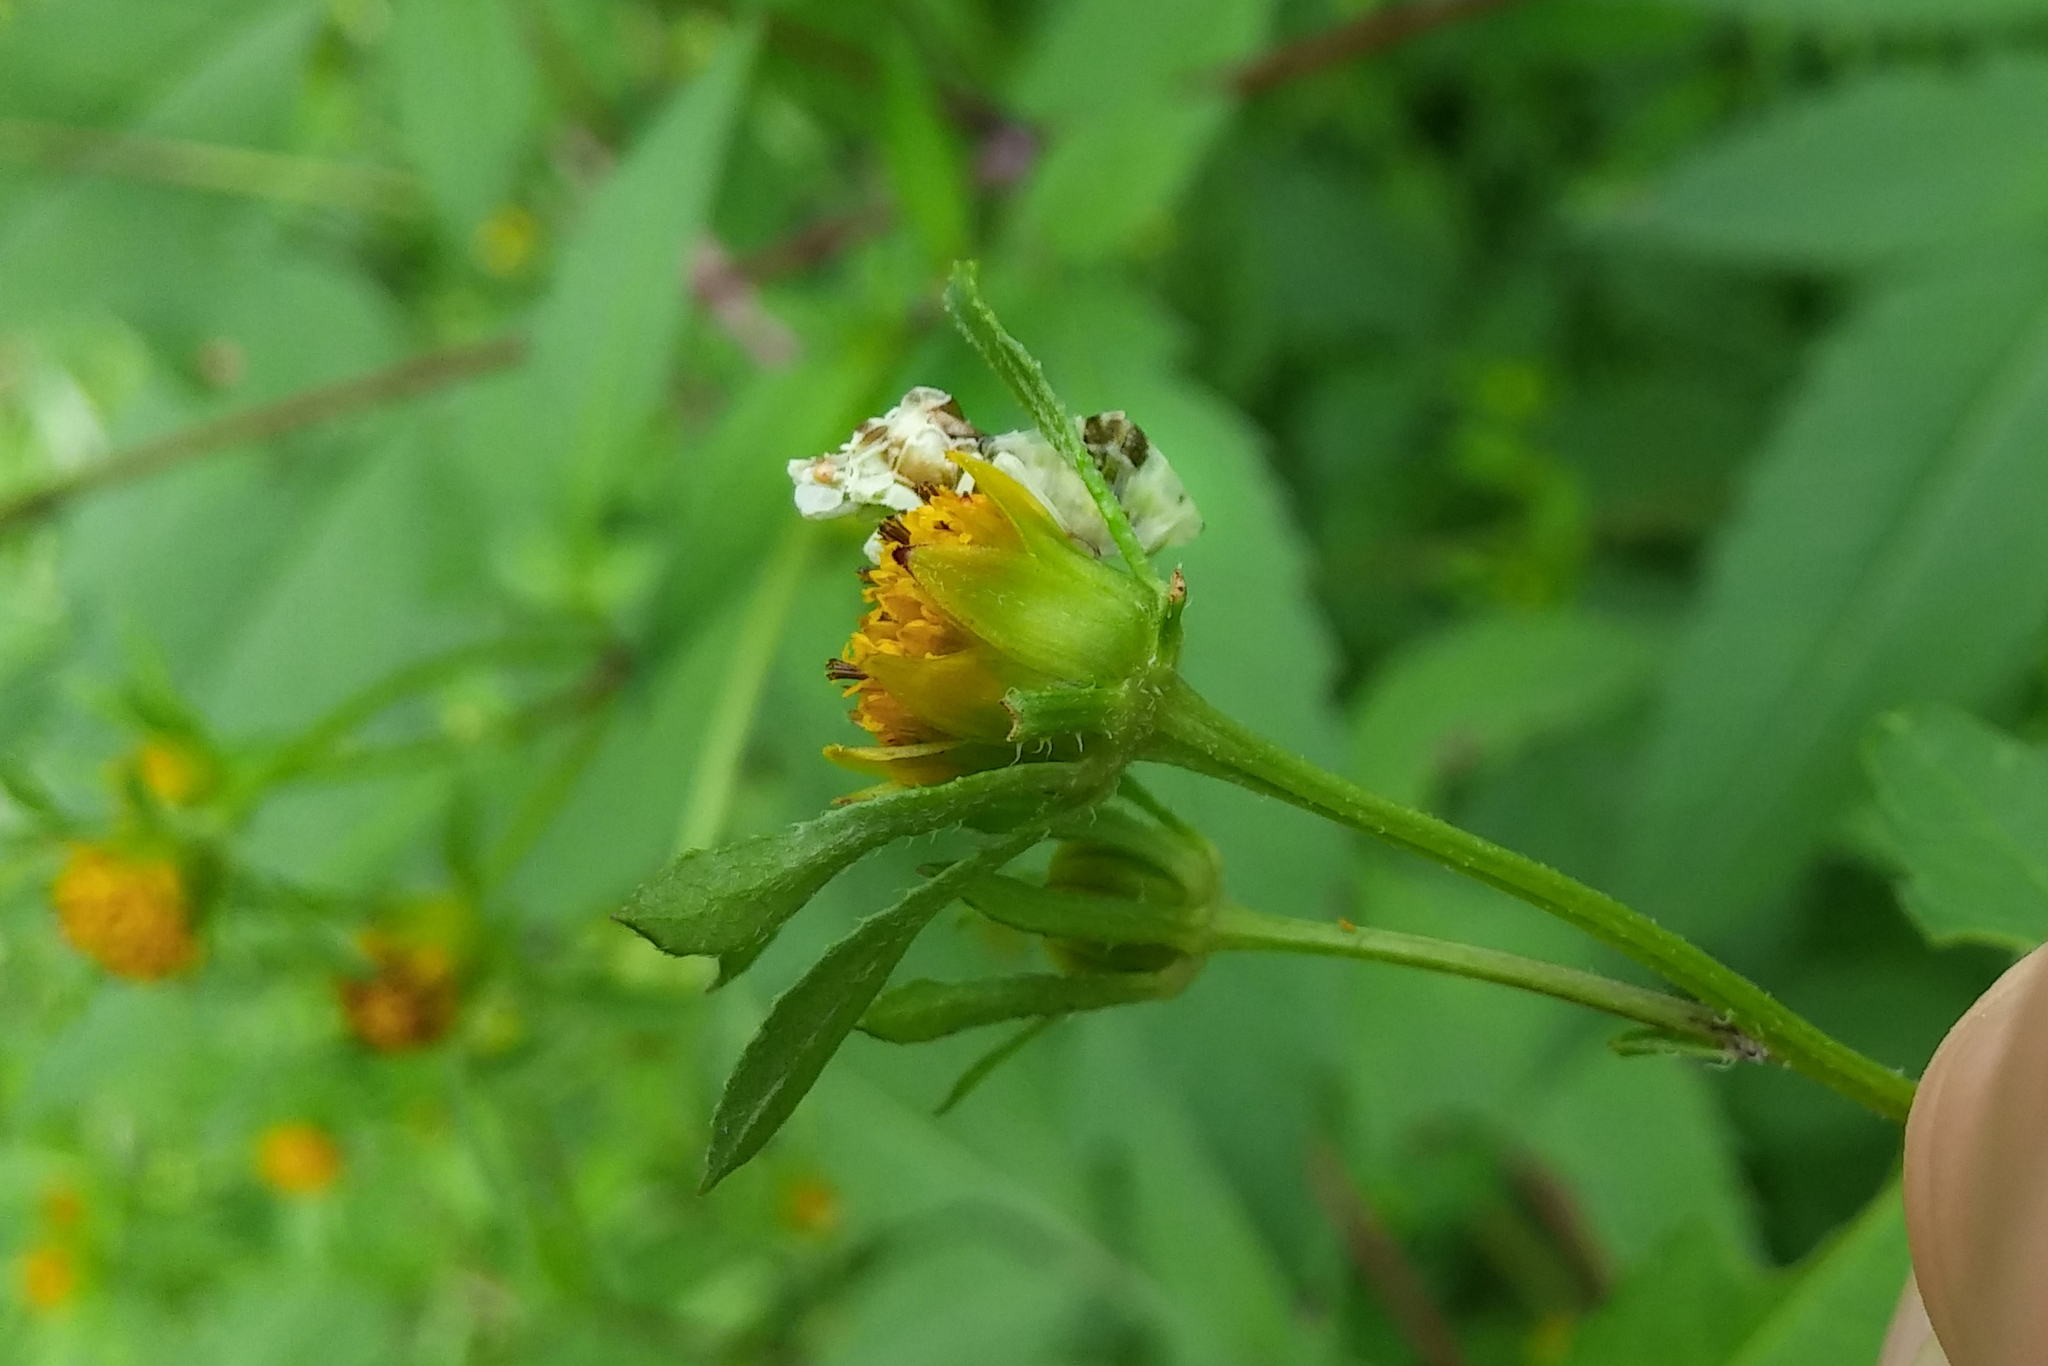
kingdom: Animalia
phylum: Arthropoda
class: Insecta
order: Hemiptera
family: Reduviidae
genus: Phymata
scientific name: Phymata fasciata
